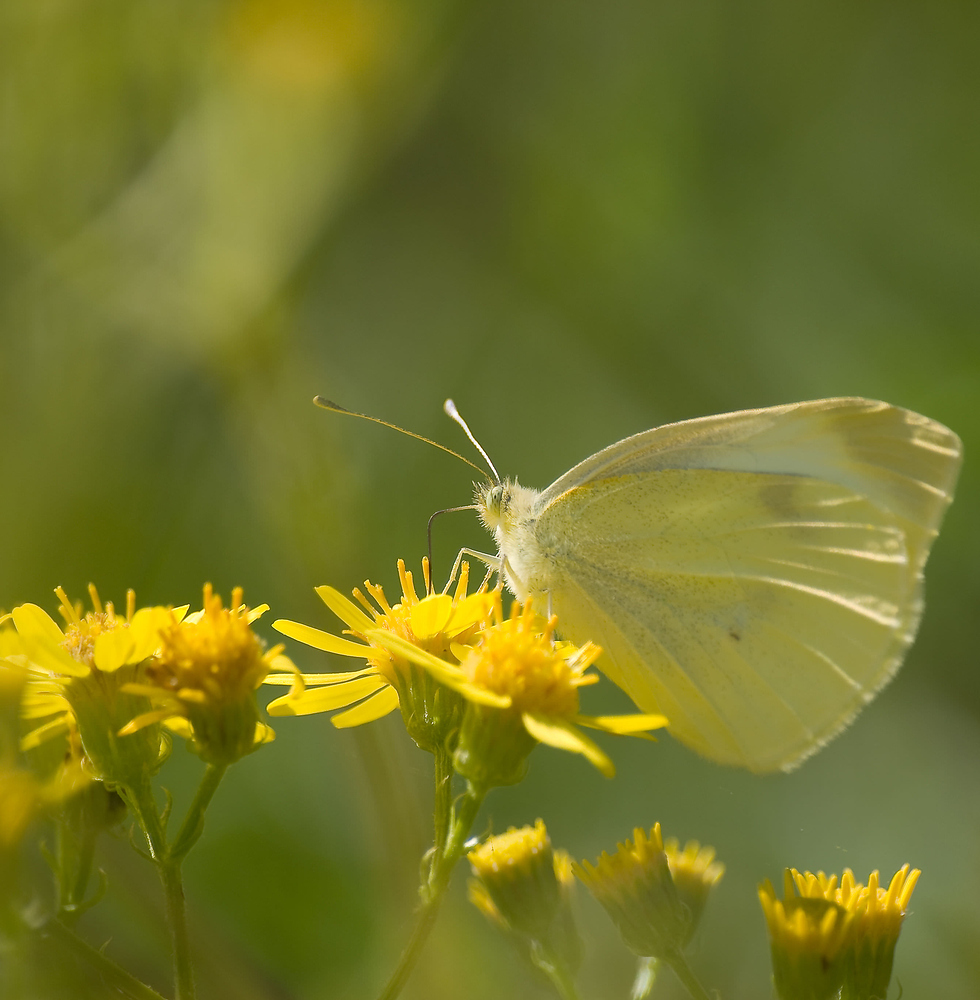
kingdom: Animalia
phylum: Arthropoda
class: Insecta
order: Lepidoptera
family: Pieridae
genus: Pieris
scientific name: Pieris rapae
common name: Small white
